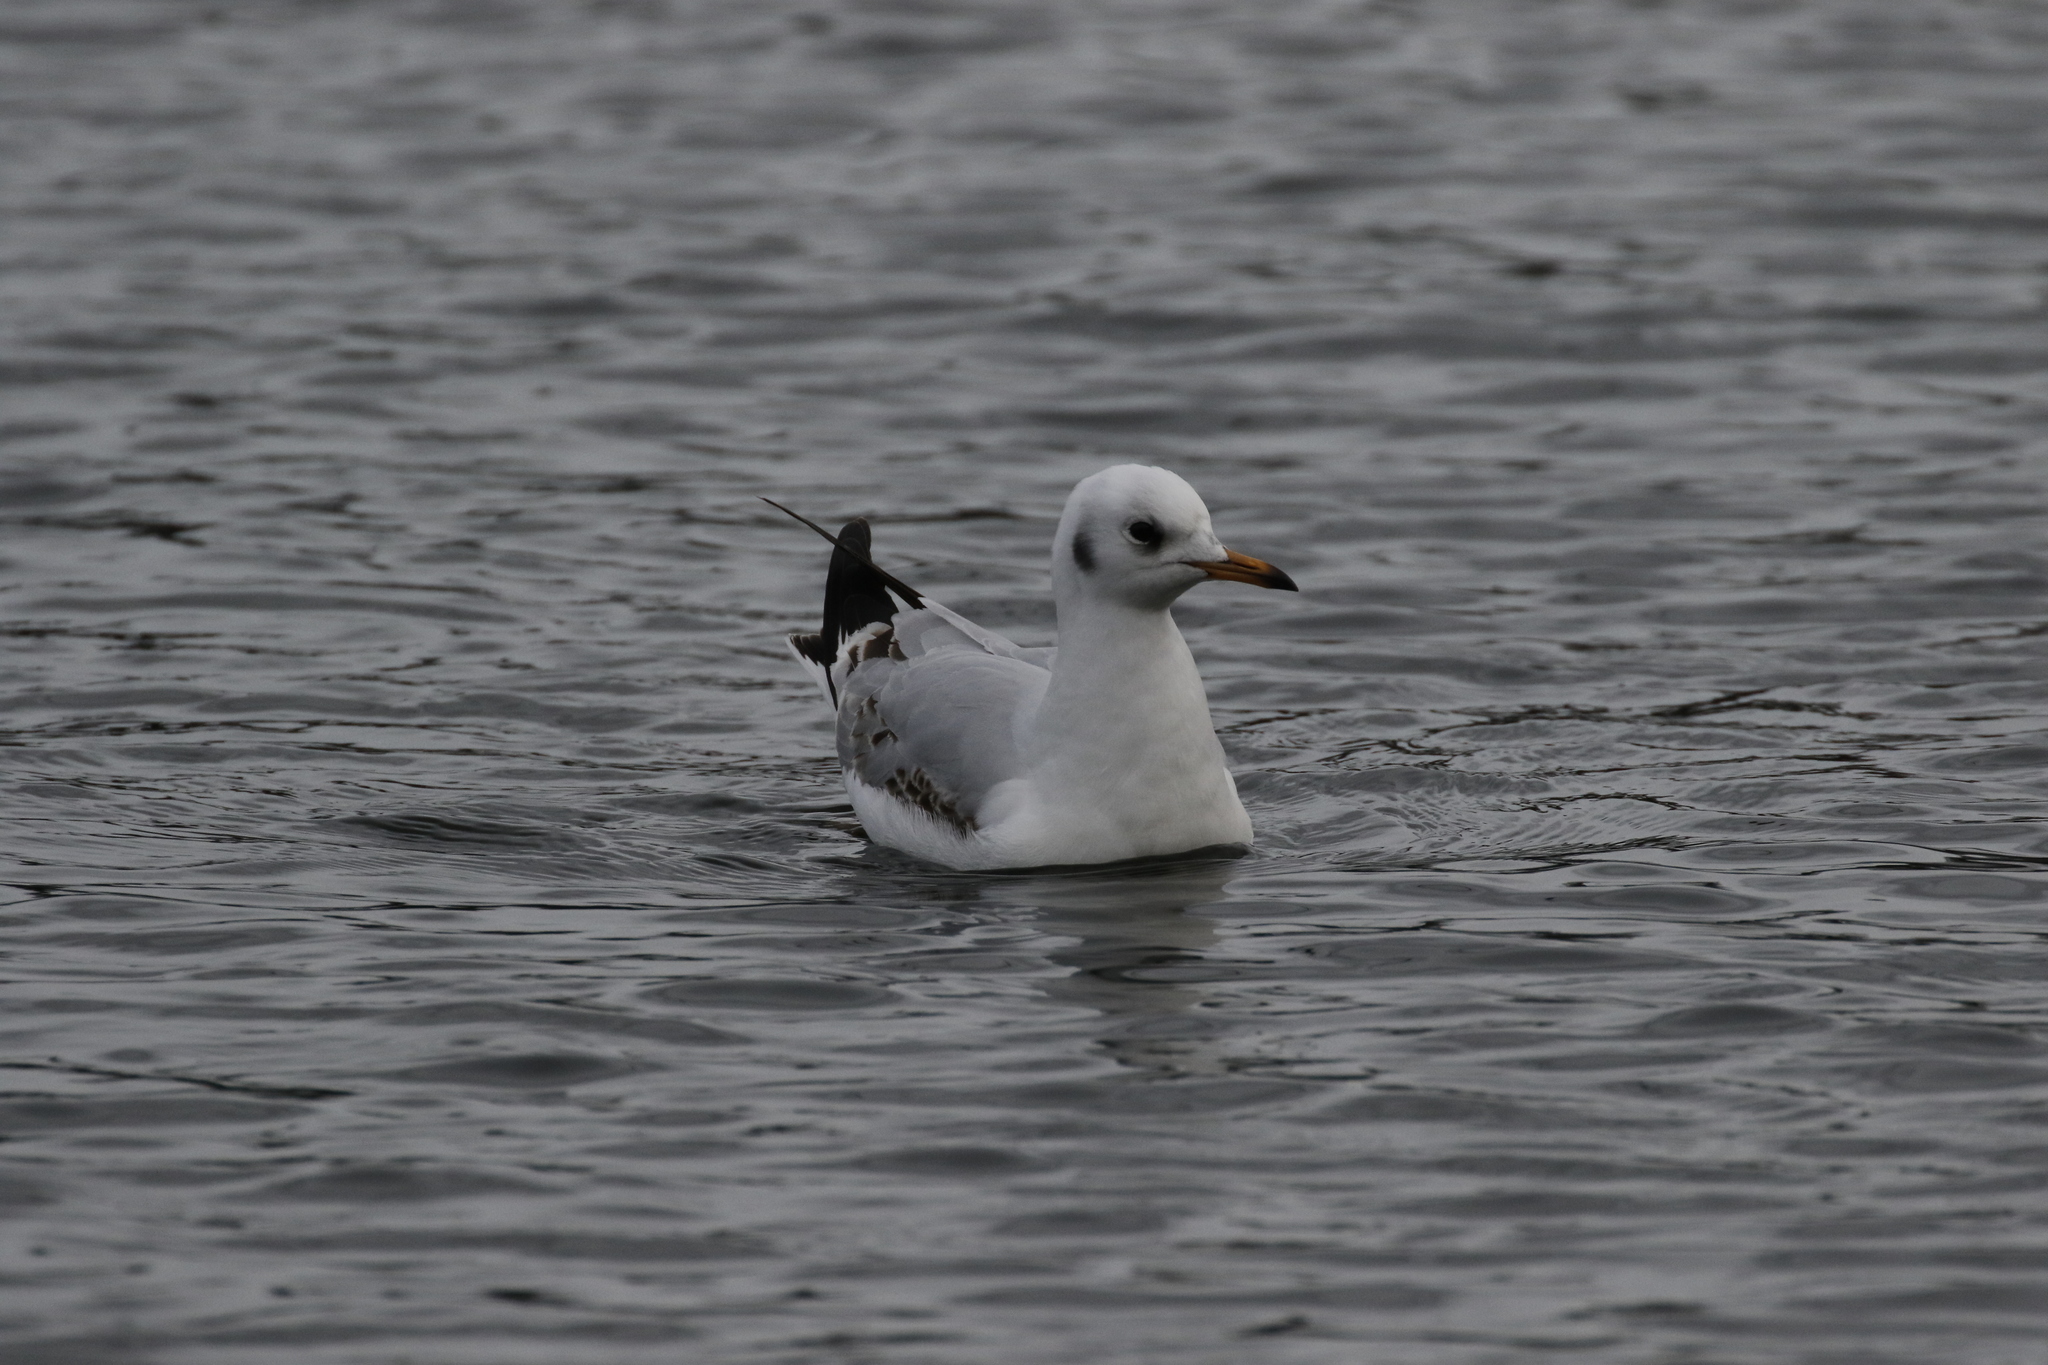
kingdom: Animalia
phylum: Chordata
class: Aves
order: Charadriiformes
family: Laridae
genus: Chroicocephalus
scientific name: Chroicocephalus ridibundus
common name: Black-headed gull
